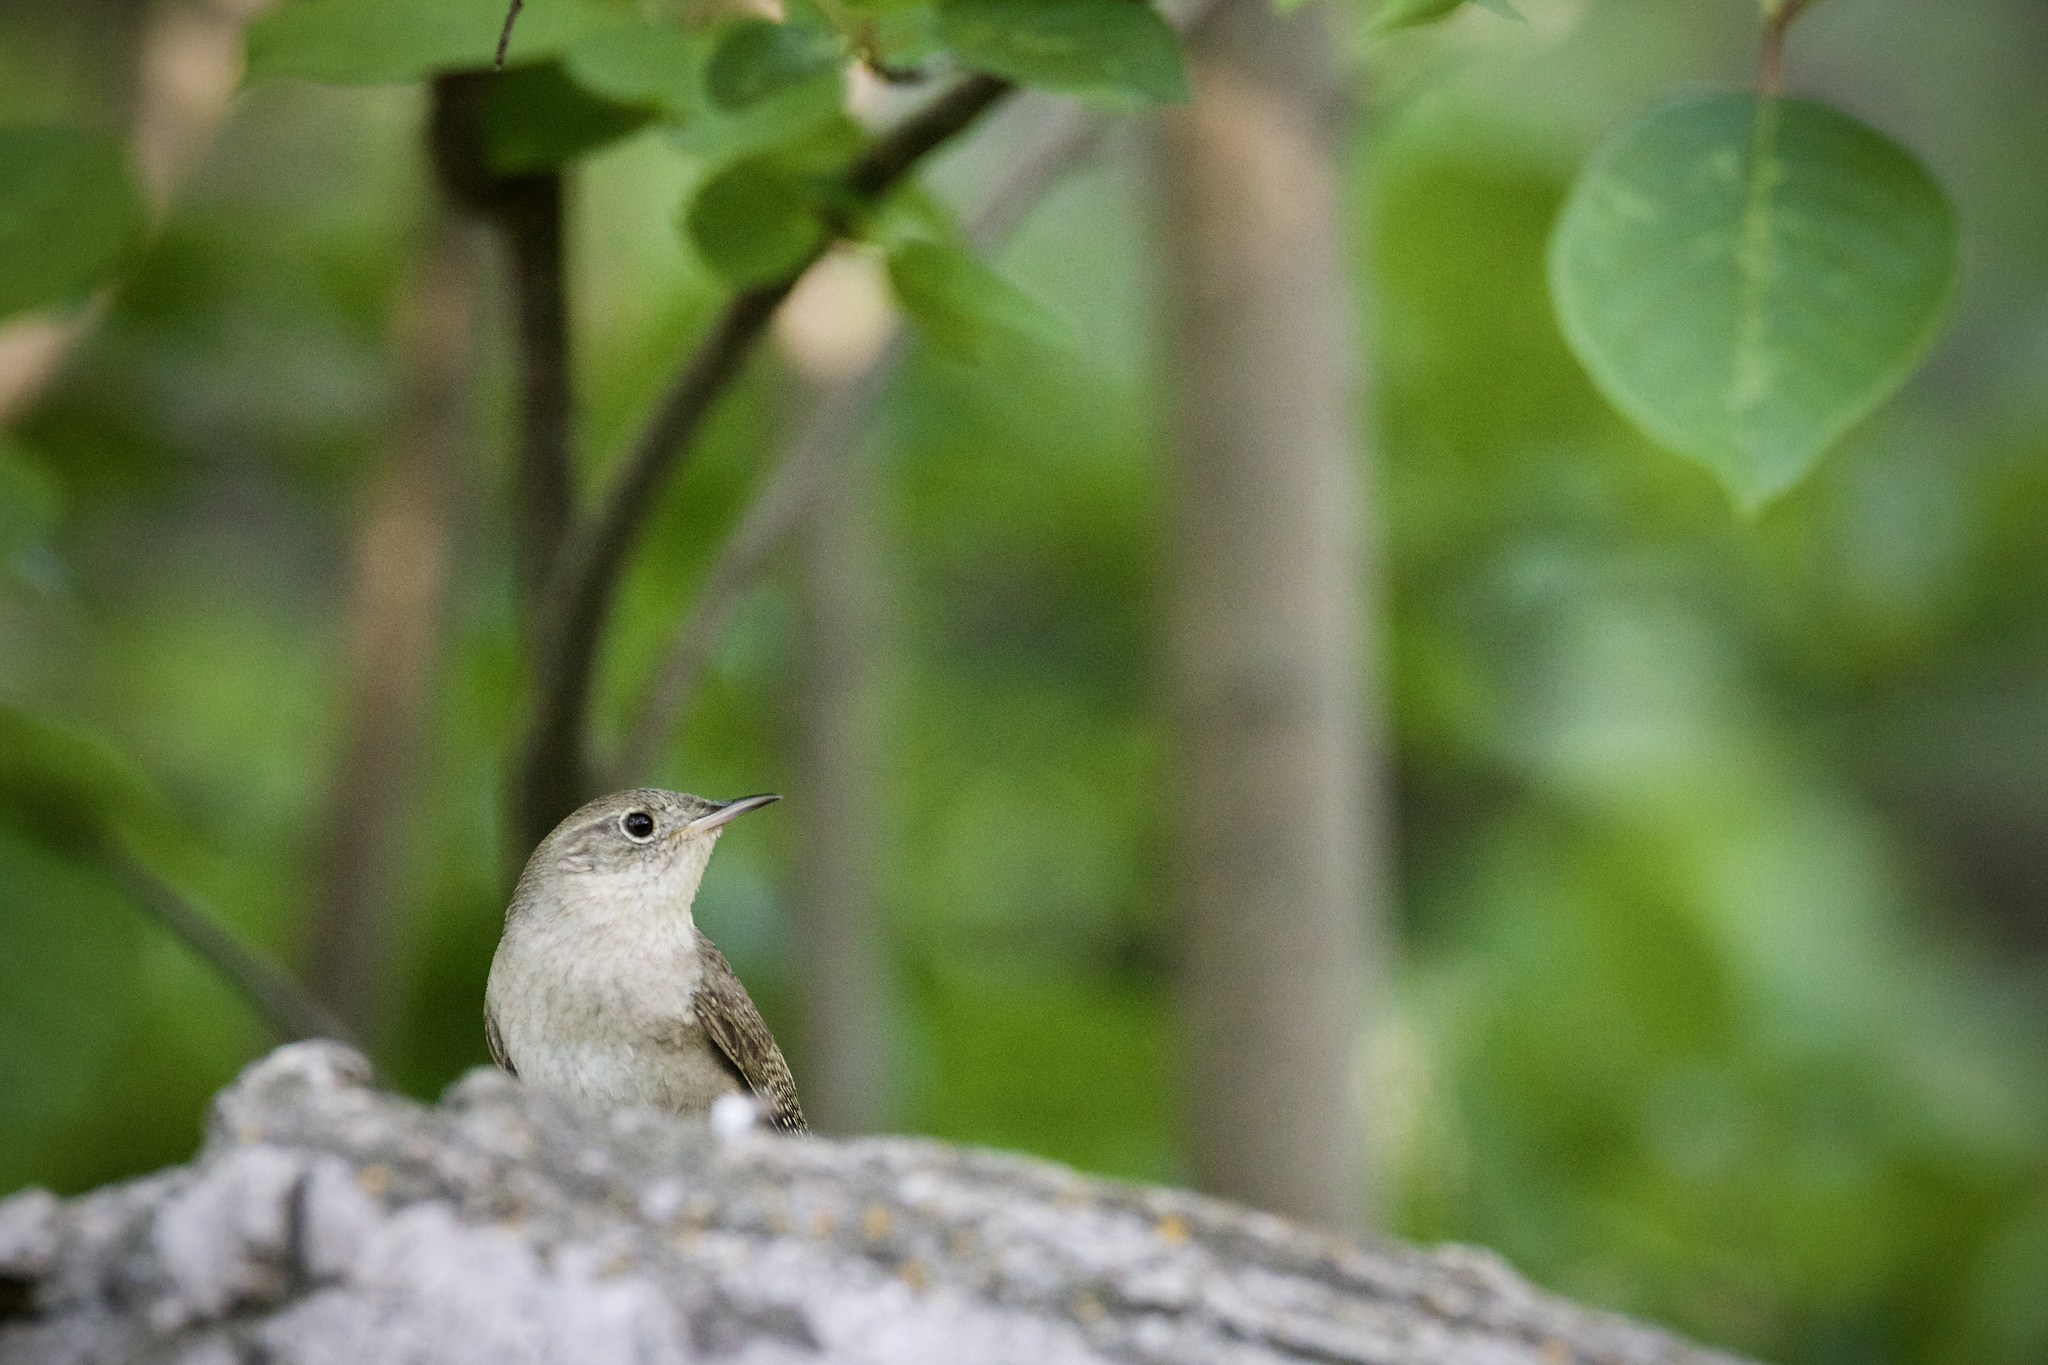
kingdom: Animalia
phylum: Chordata
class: Aves
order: Passeriformes
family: Troglodytidae
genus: Troglodytes
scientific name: Troglodytes aedon
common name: House wren
